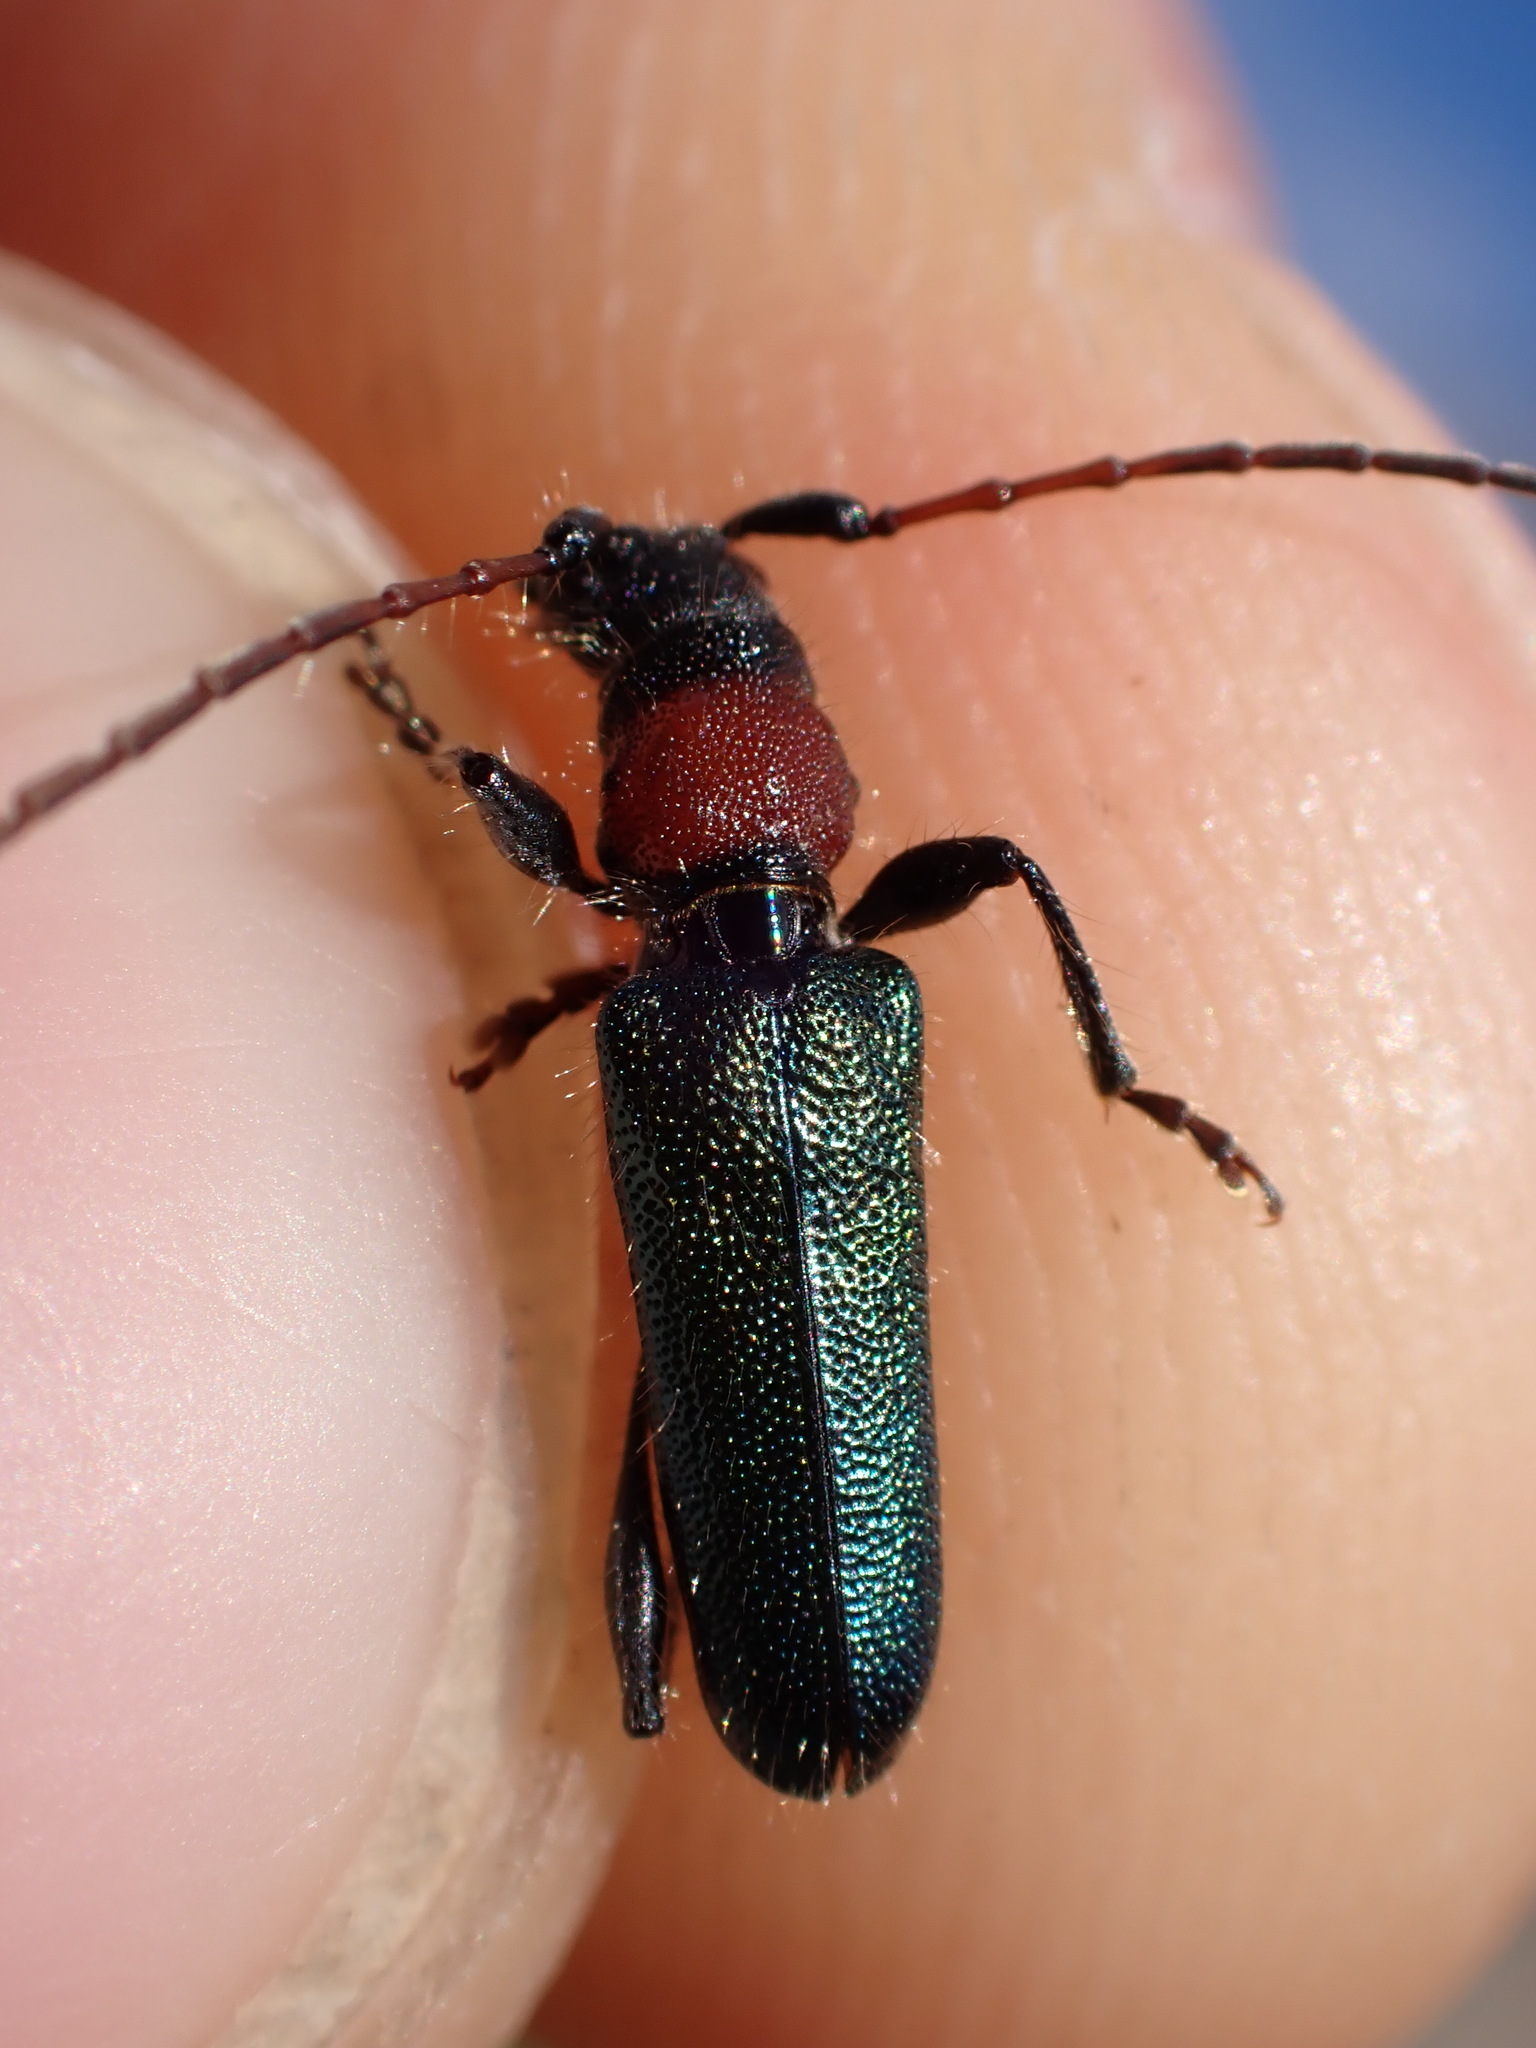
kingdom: Animalia
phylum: Arthropoda
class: Insecta
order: Coleoptera
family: Cerambycidae
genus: Certallum
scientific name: Certallum ebulinum
